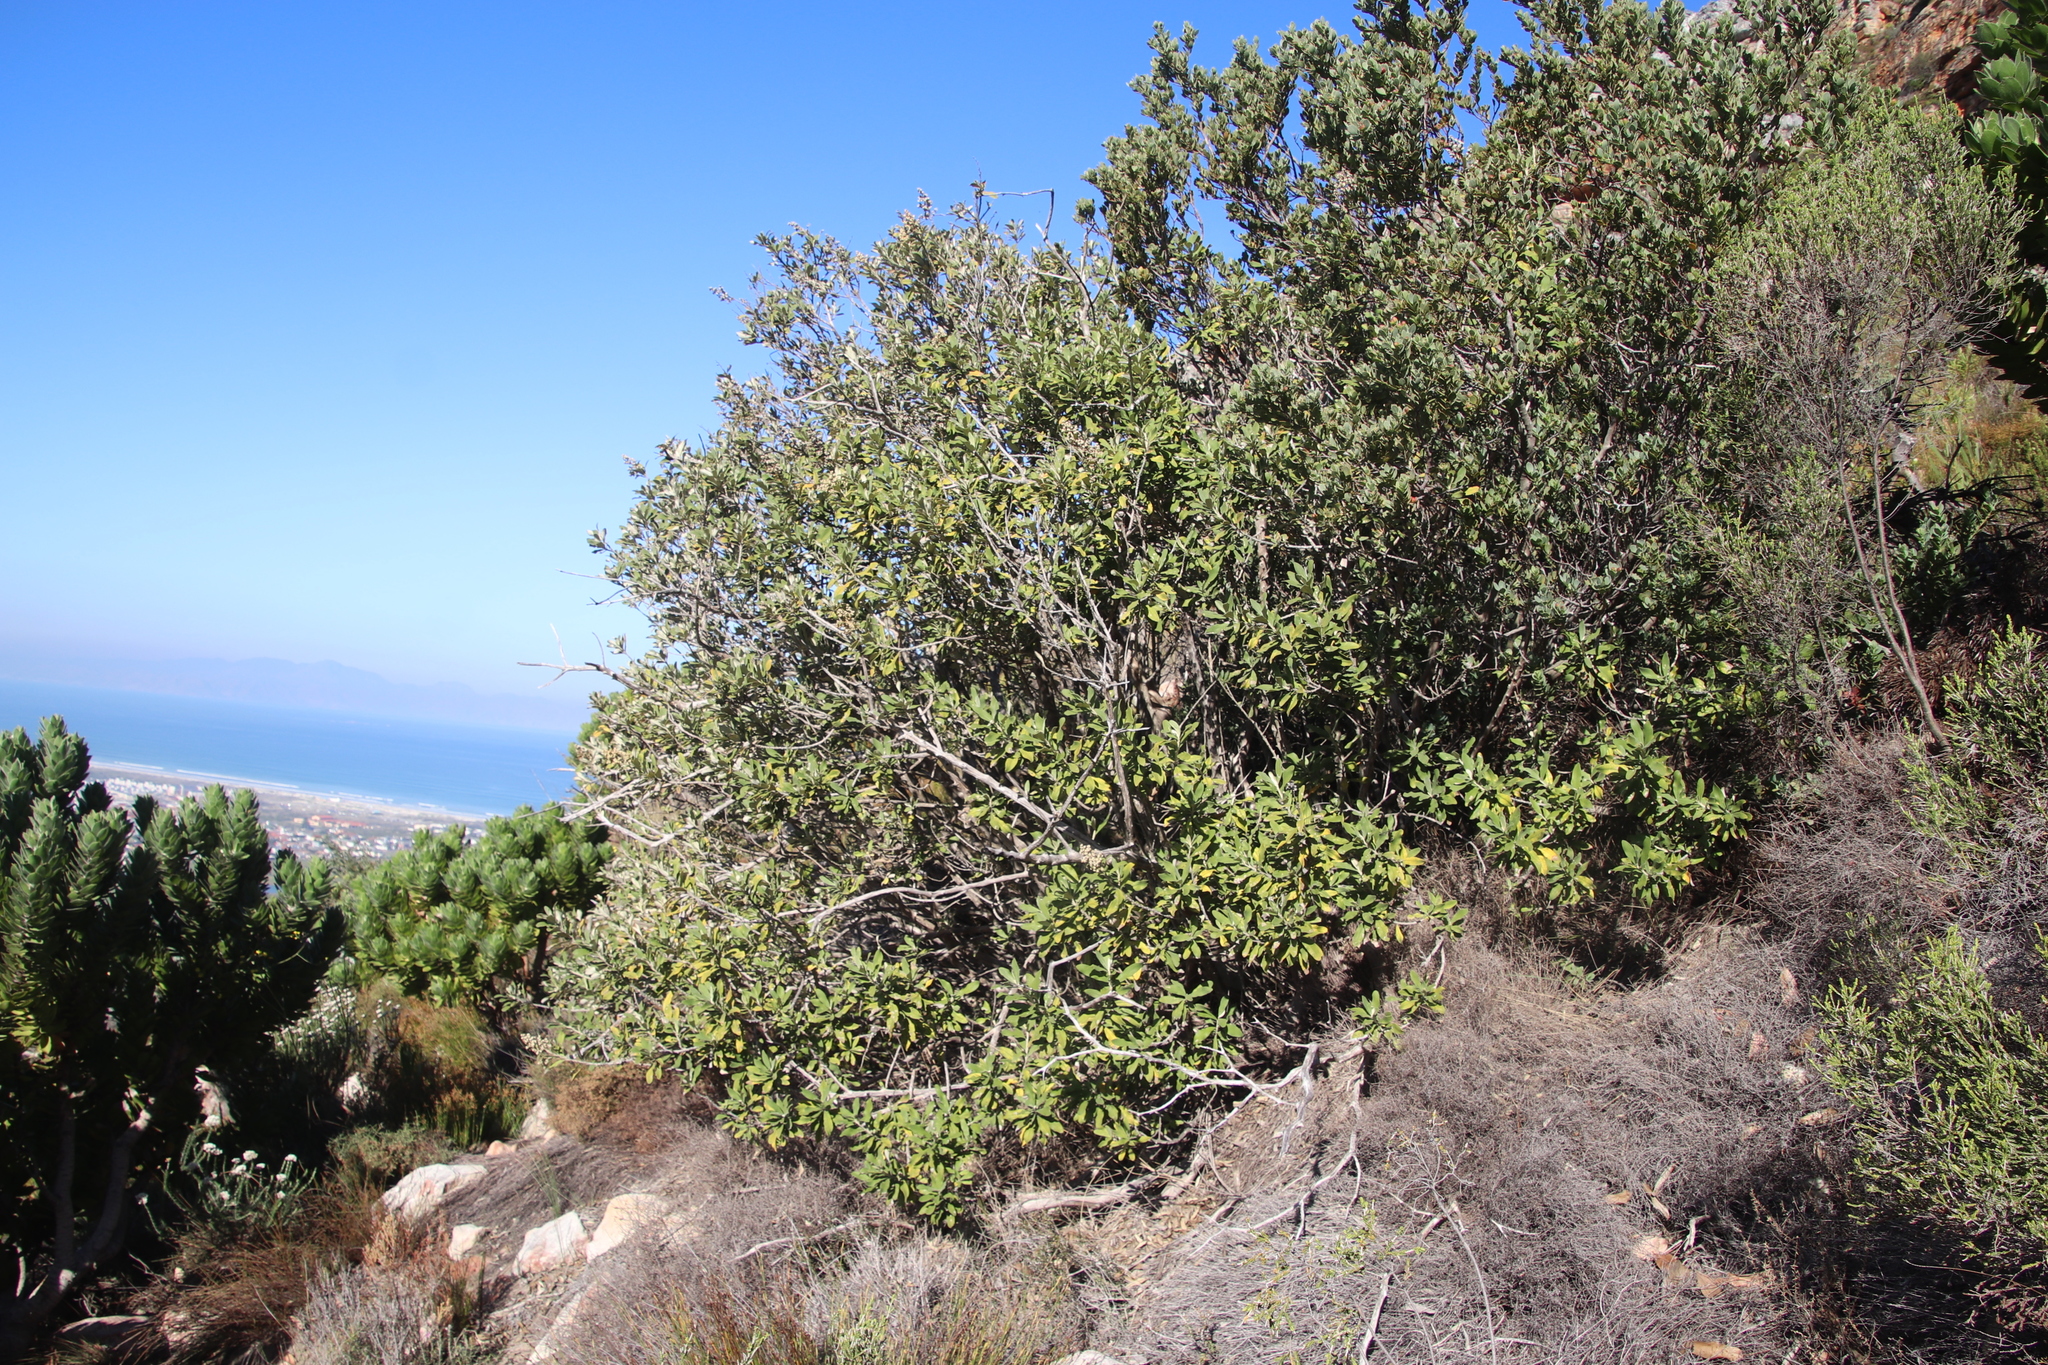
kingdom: Plantae
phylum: Tracheophyta
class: Magnoliopsida
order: Asterales
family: Asteraceae
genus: Tarchonanthus
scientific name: Tarchonanthus littoralis
